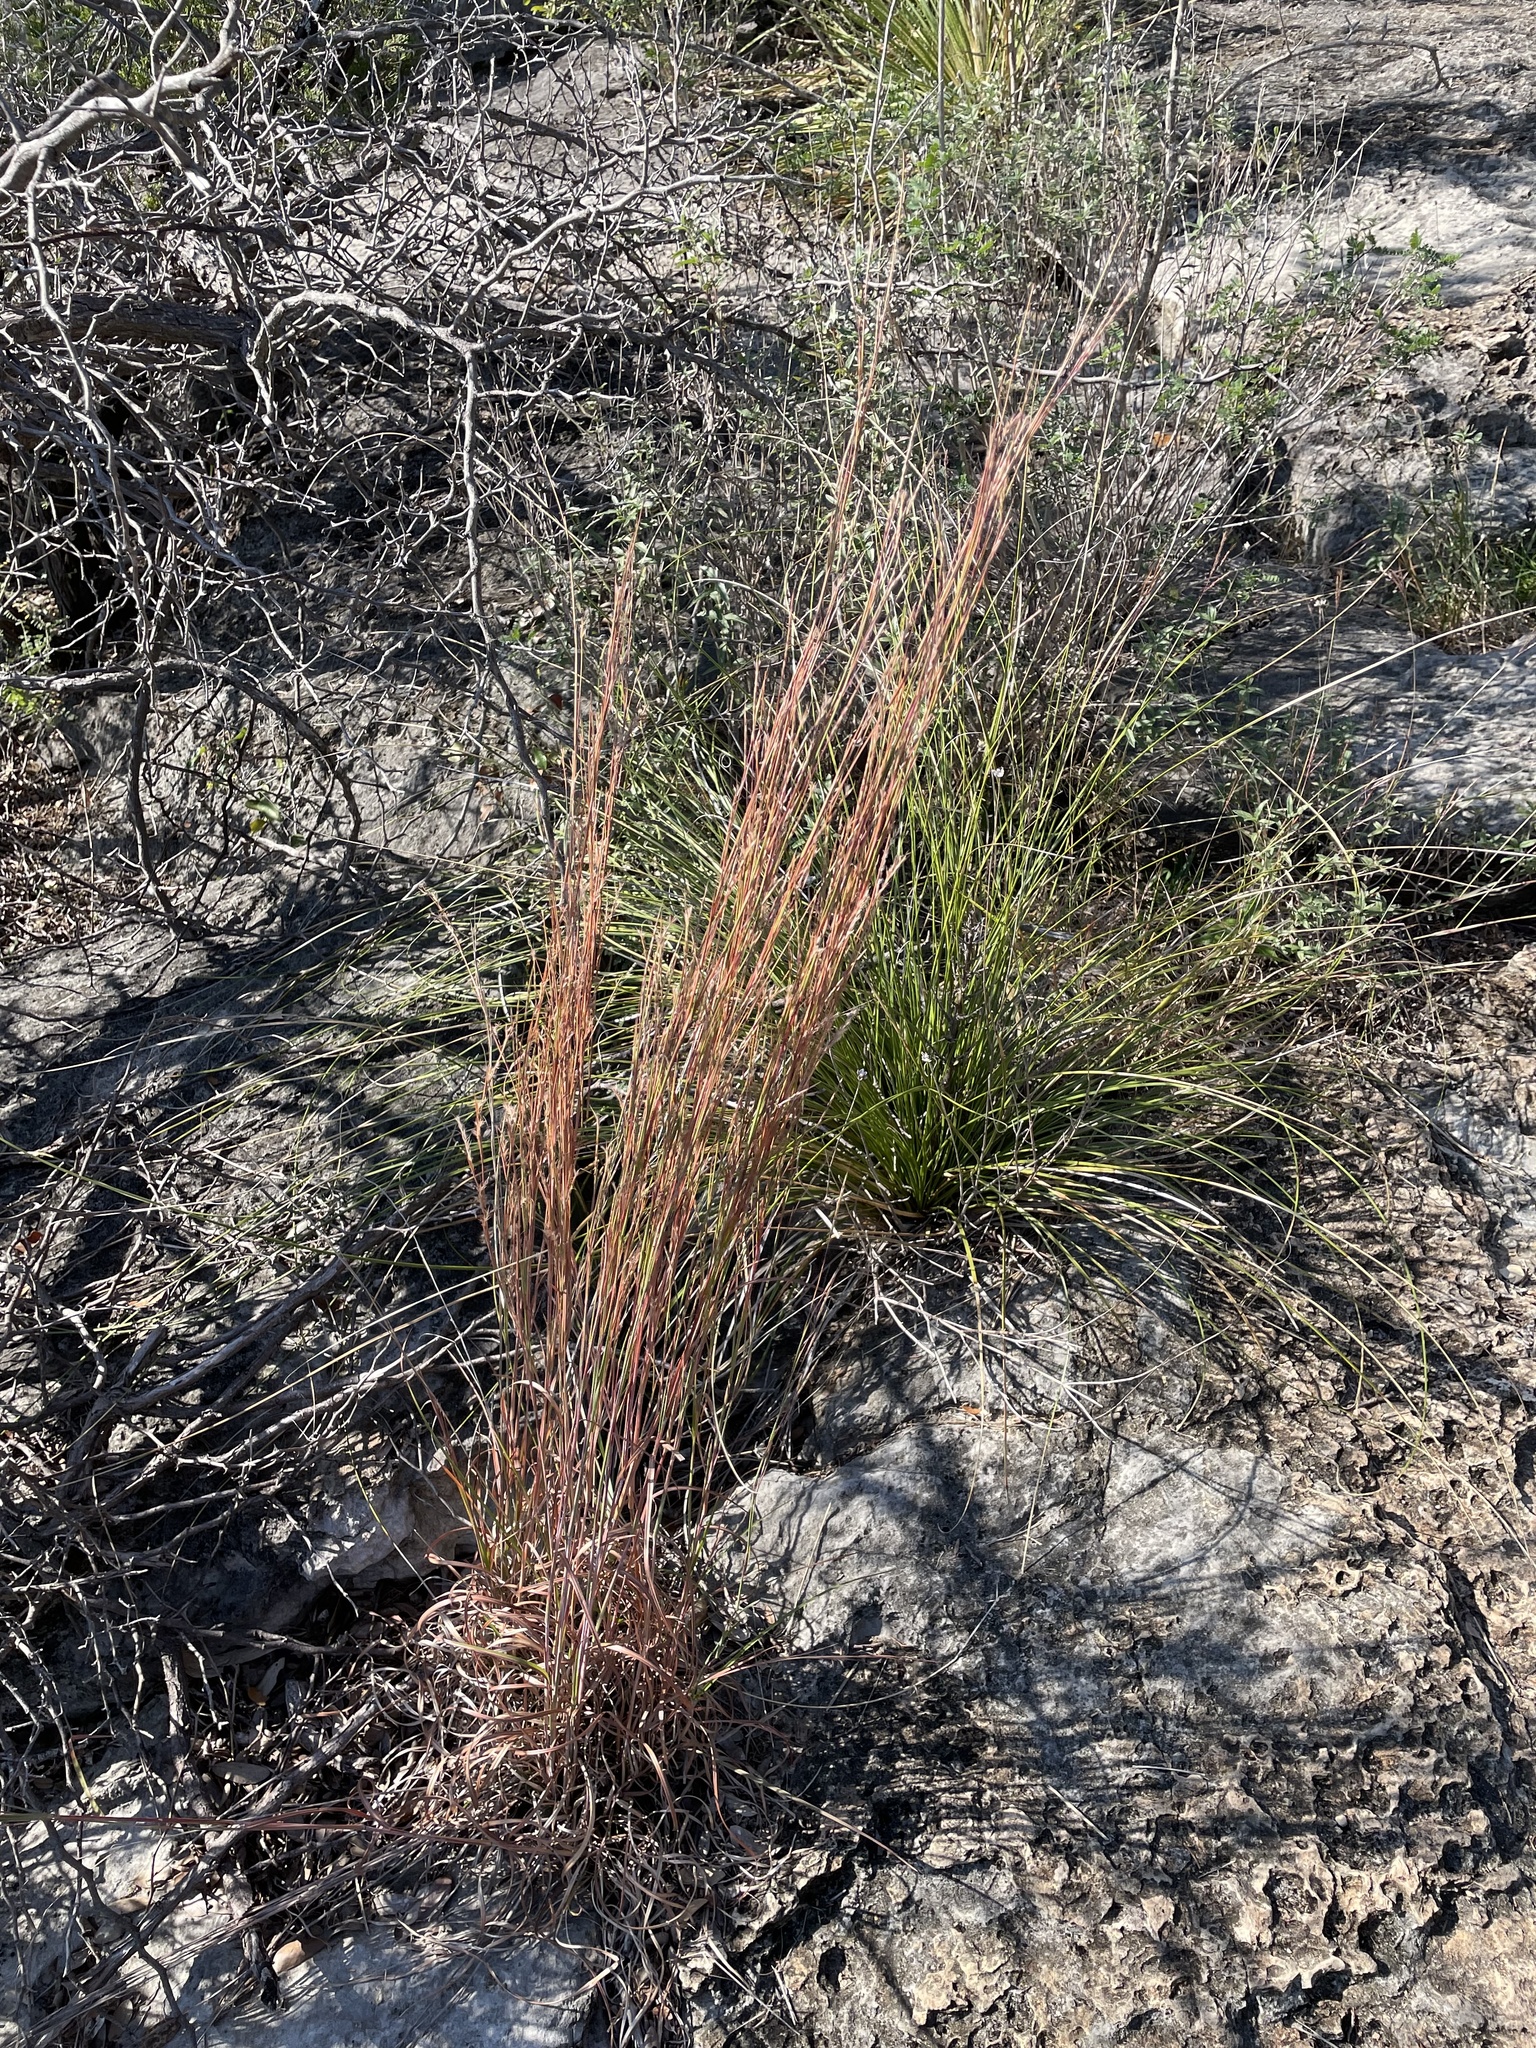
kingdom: Plantae
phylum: Tracheophyta
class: Liliopsida
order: Poales
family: Poaceae
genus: Schizachyrium
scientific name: Schizachyrium scoparium
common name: Little bluestem
